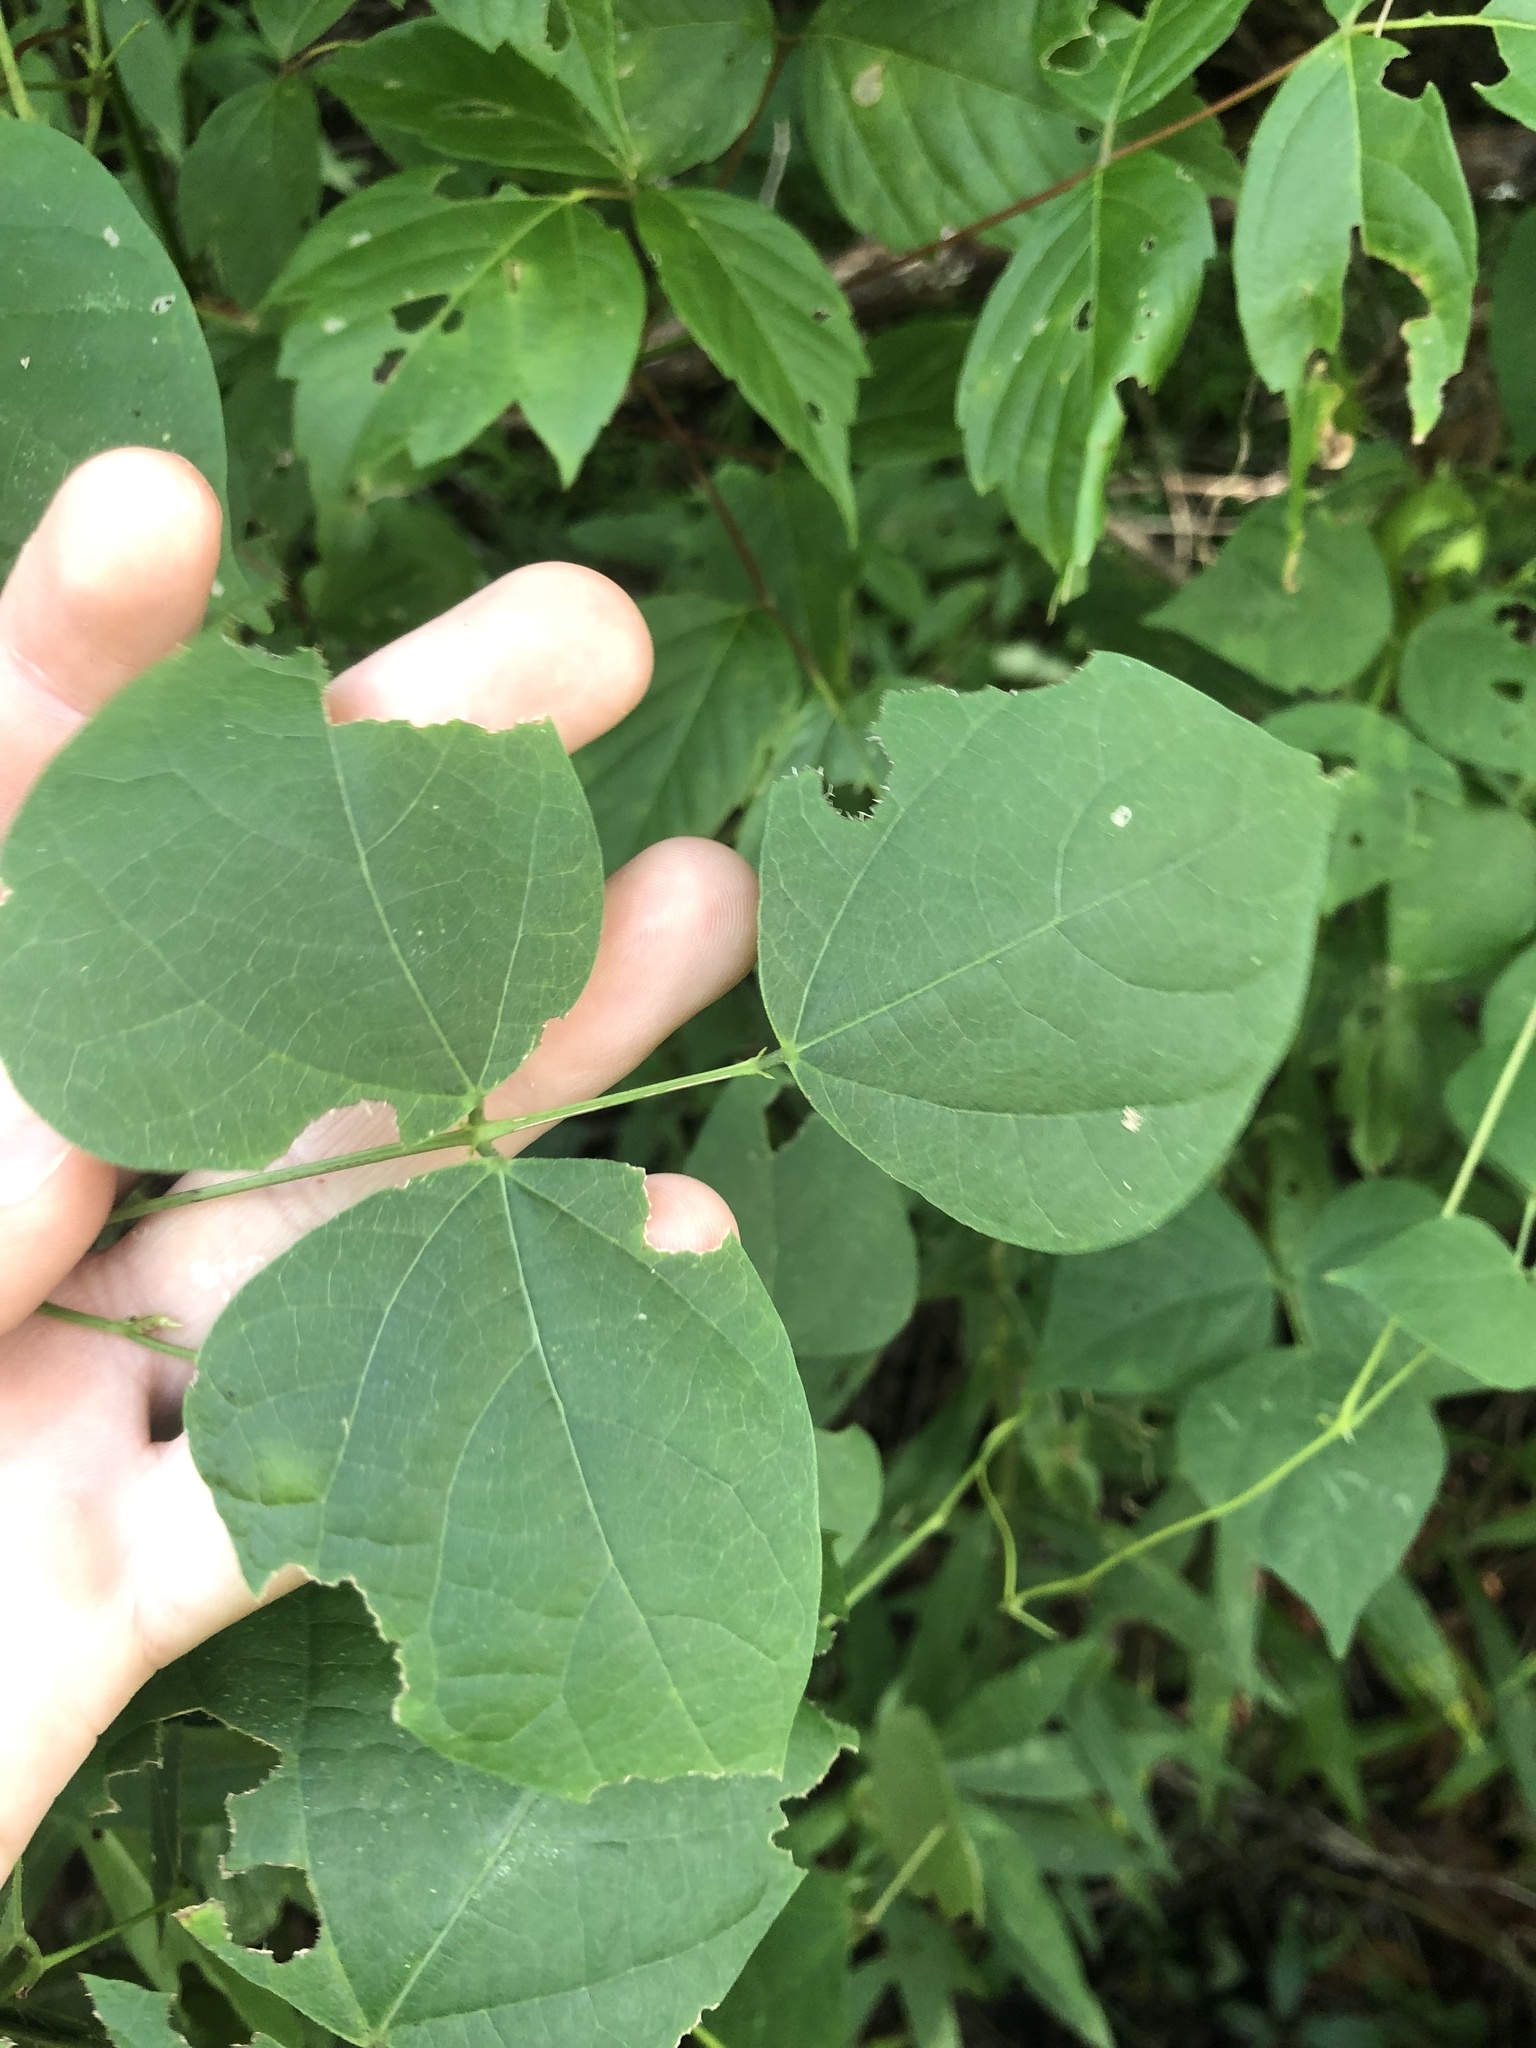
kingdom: Plantae
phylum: Tracheophyta
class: Magnoliopsida
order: Fabales
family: Fabaceae
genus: Phaseolus
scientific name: Phaseolus polystachios
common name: Thicket bean
